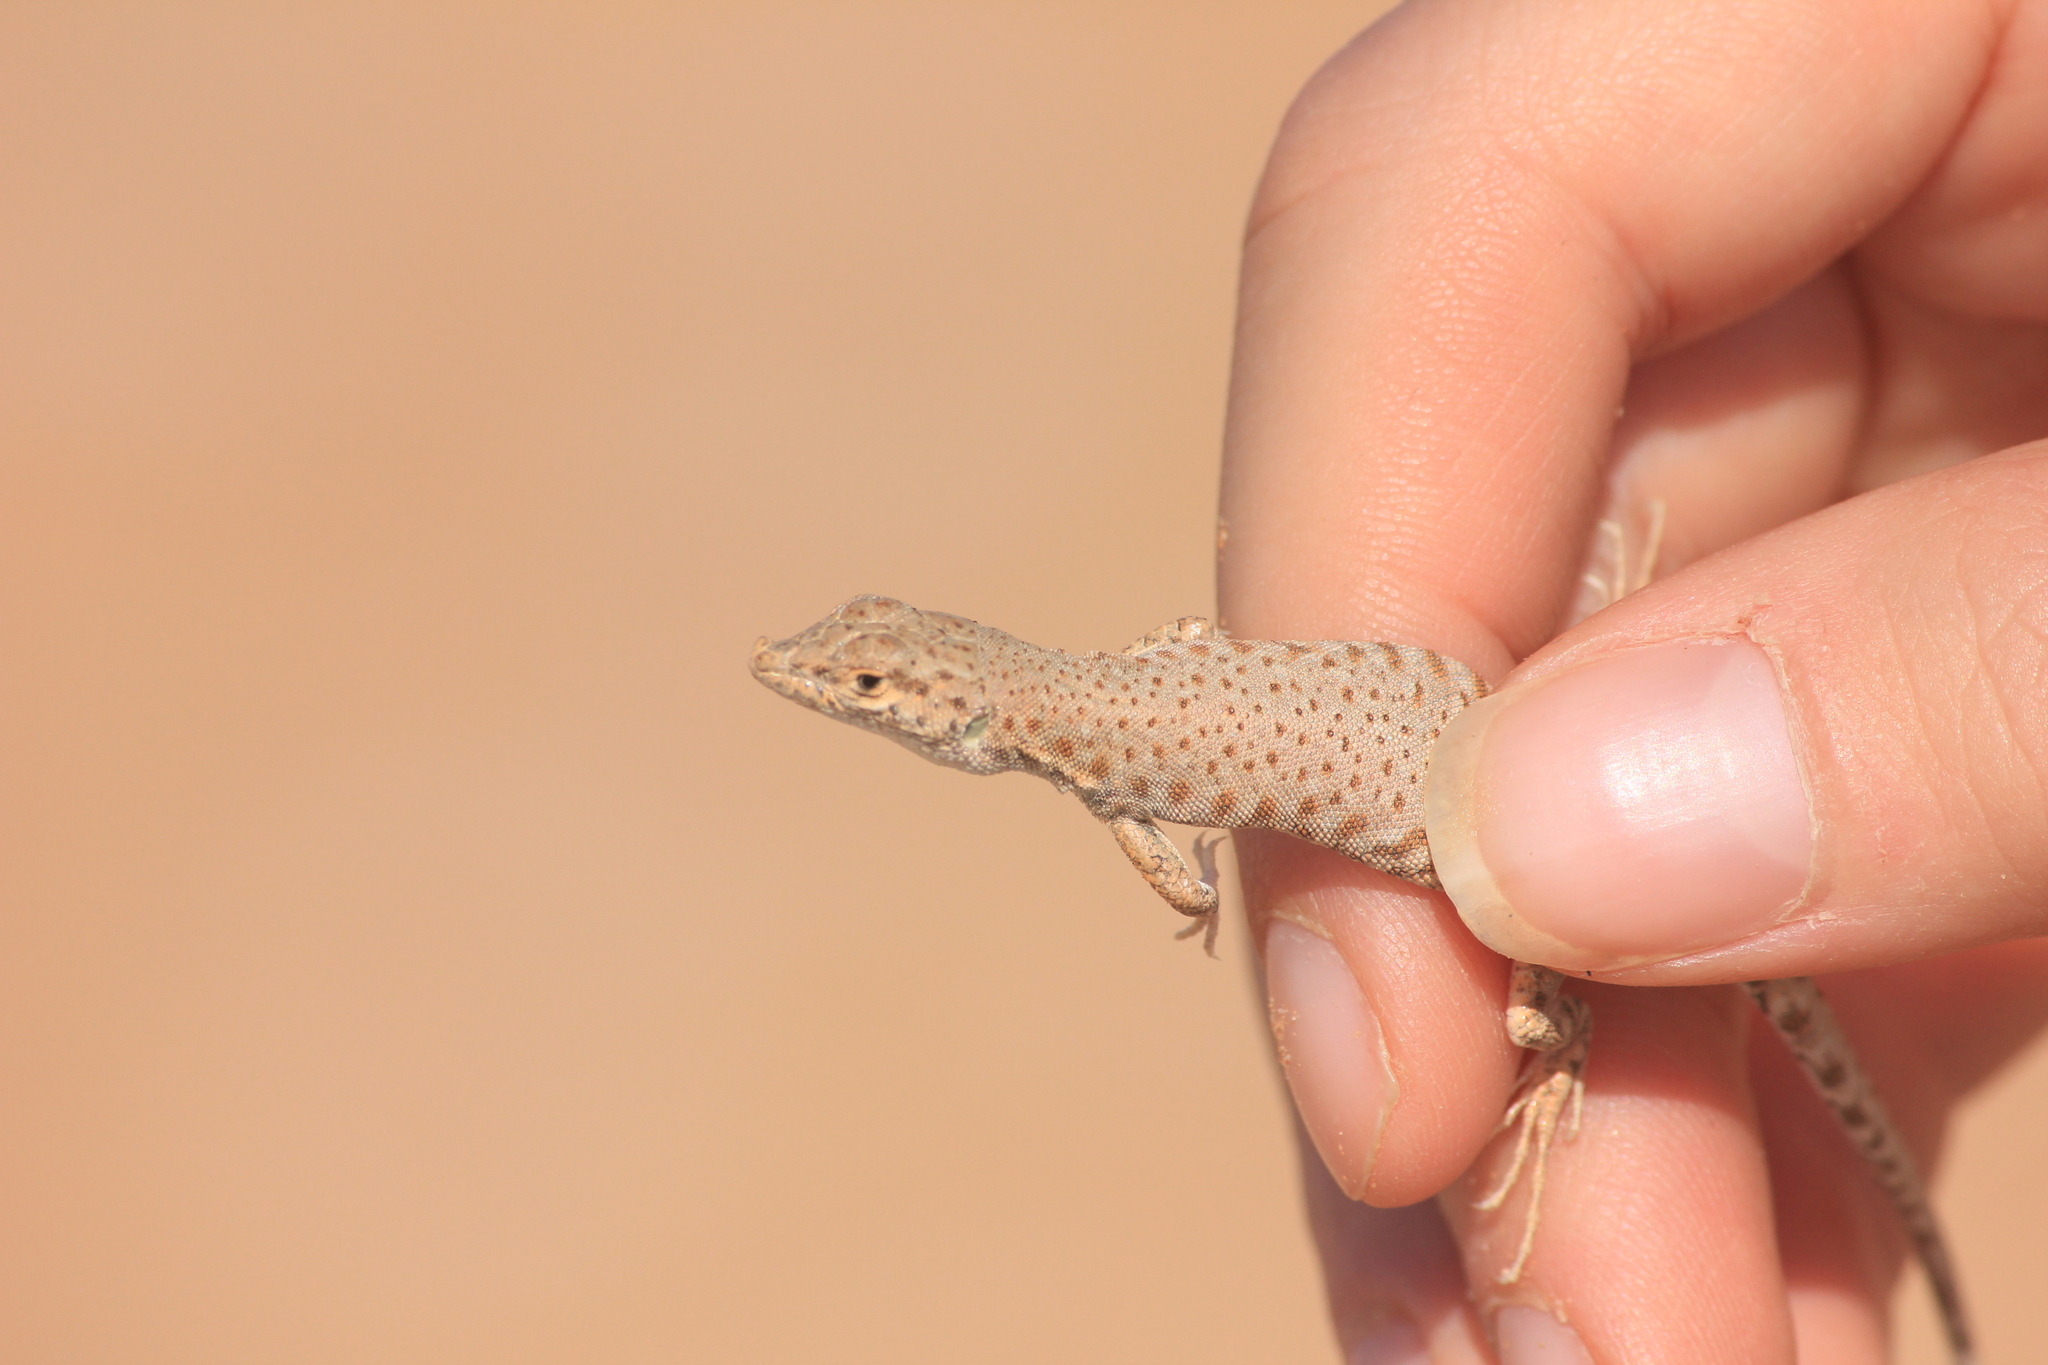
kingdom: Animalia
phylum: Chordata
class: Squamata
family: Lacertidae
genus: Mesalina
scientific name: Mesalina brevirostris
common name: Blanford's short-nosed desert lizard
